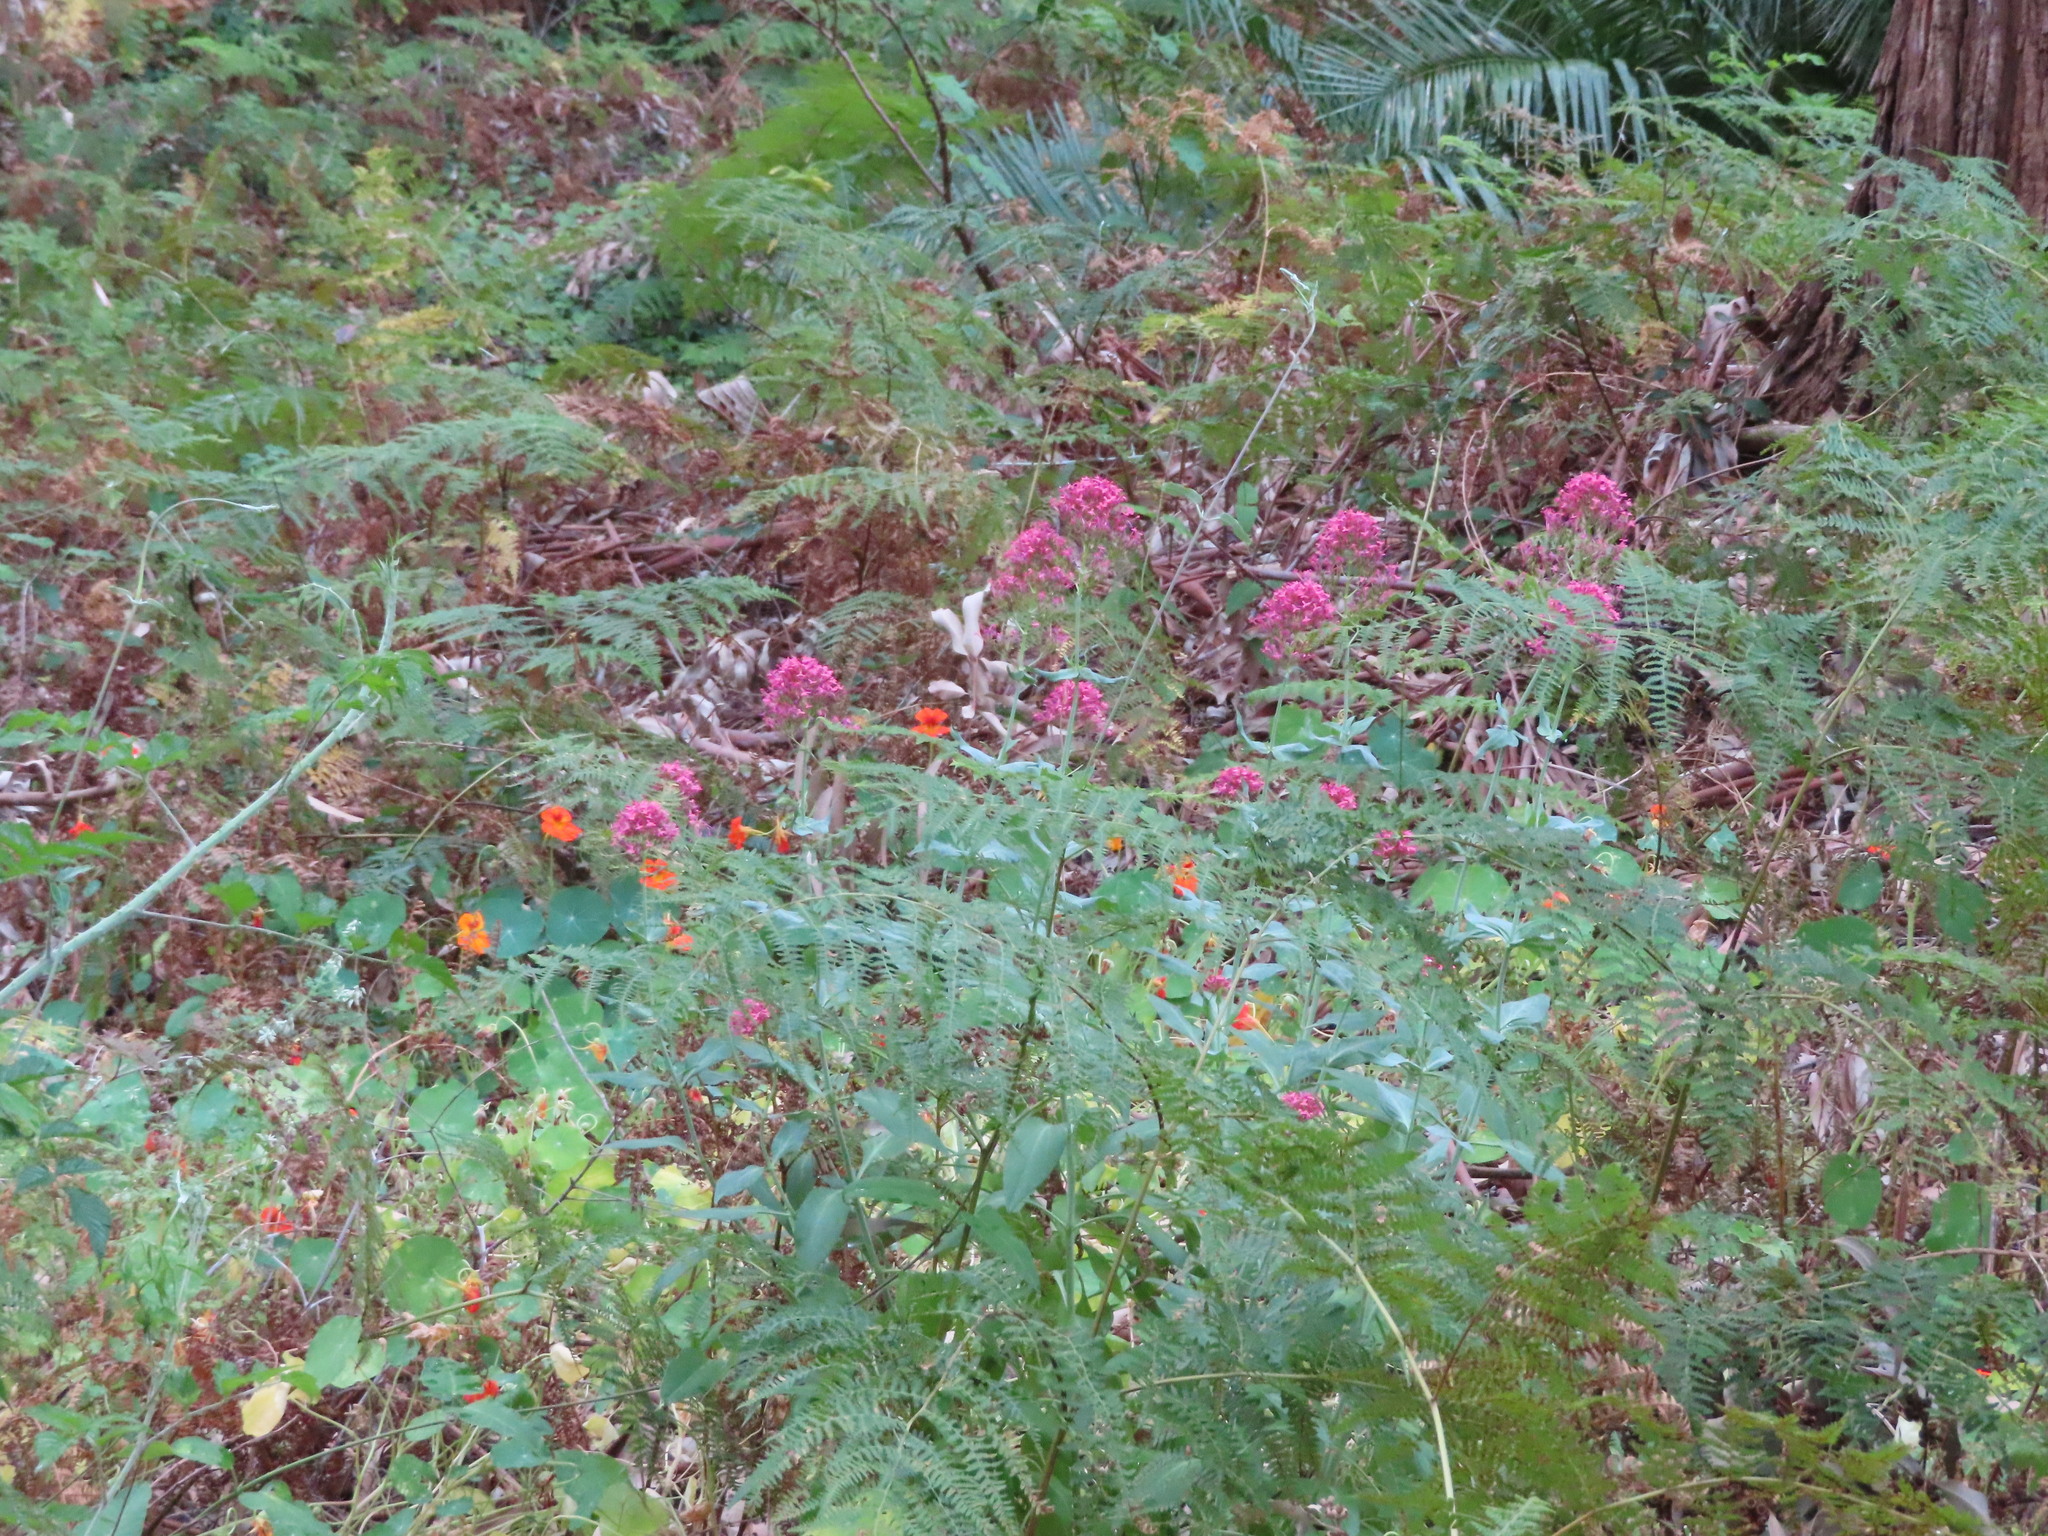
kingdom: Plantae
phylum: Tracheophyta
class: Magnoliopsida
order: Dipsacales
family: Caprifoliaceae
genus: Centranthus
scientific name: Centranthus ruber
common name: Red valerian
